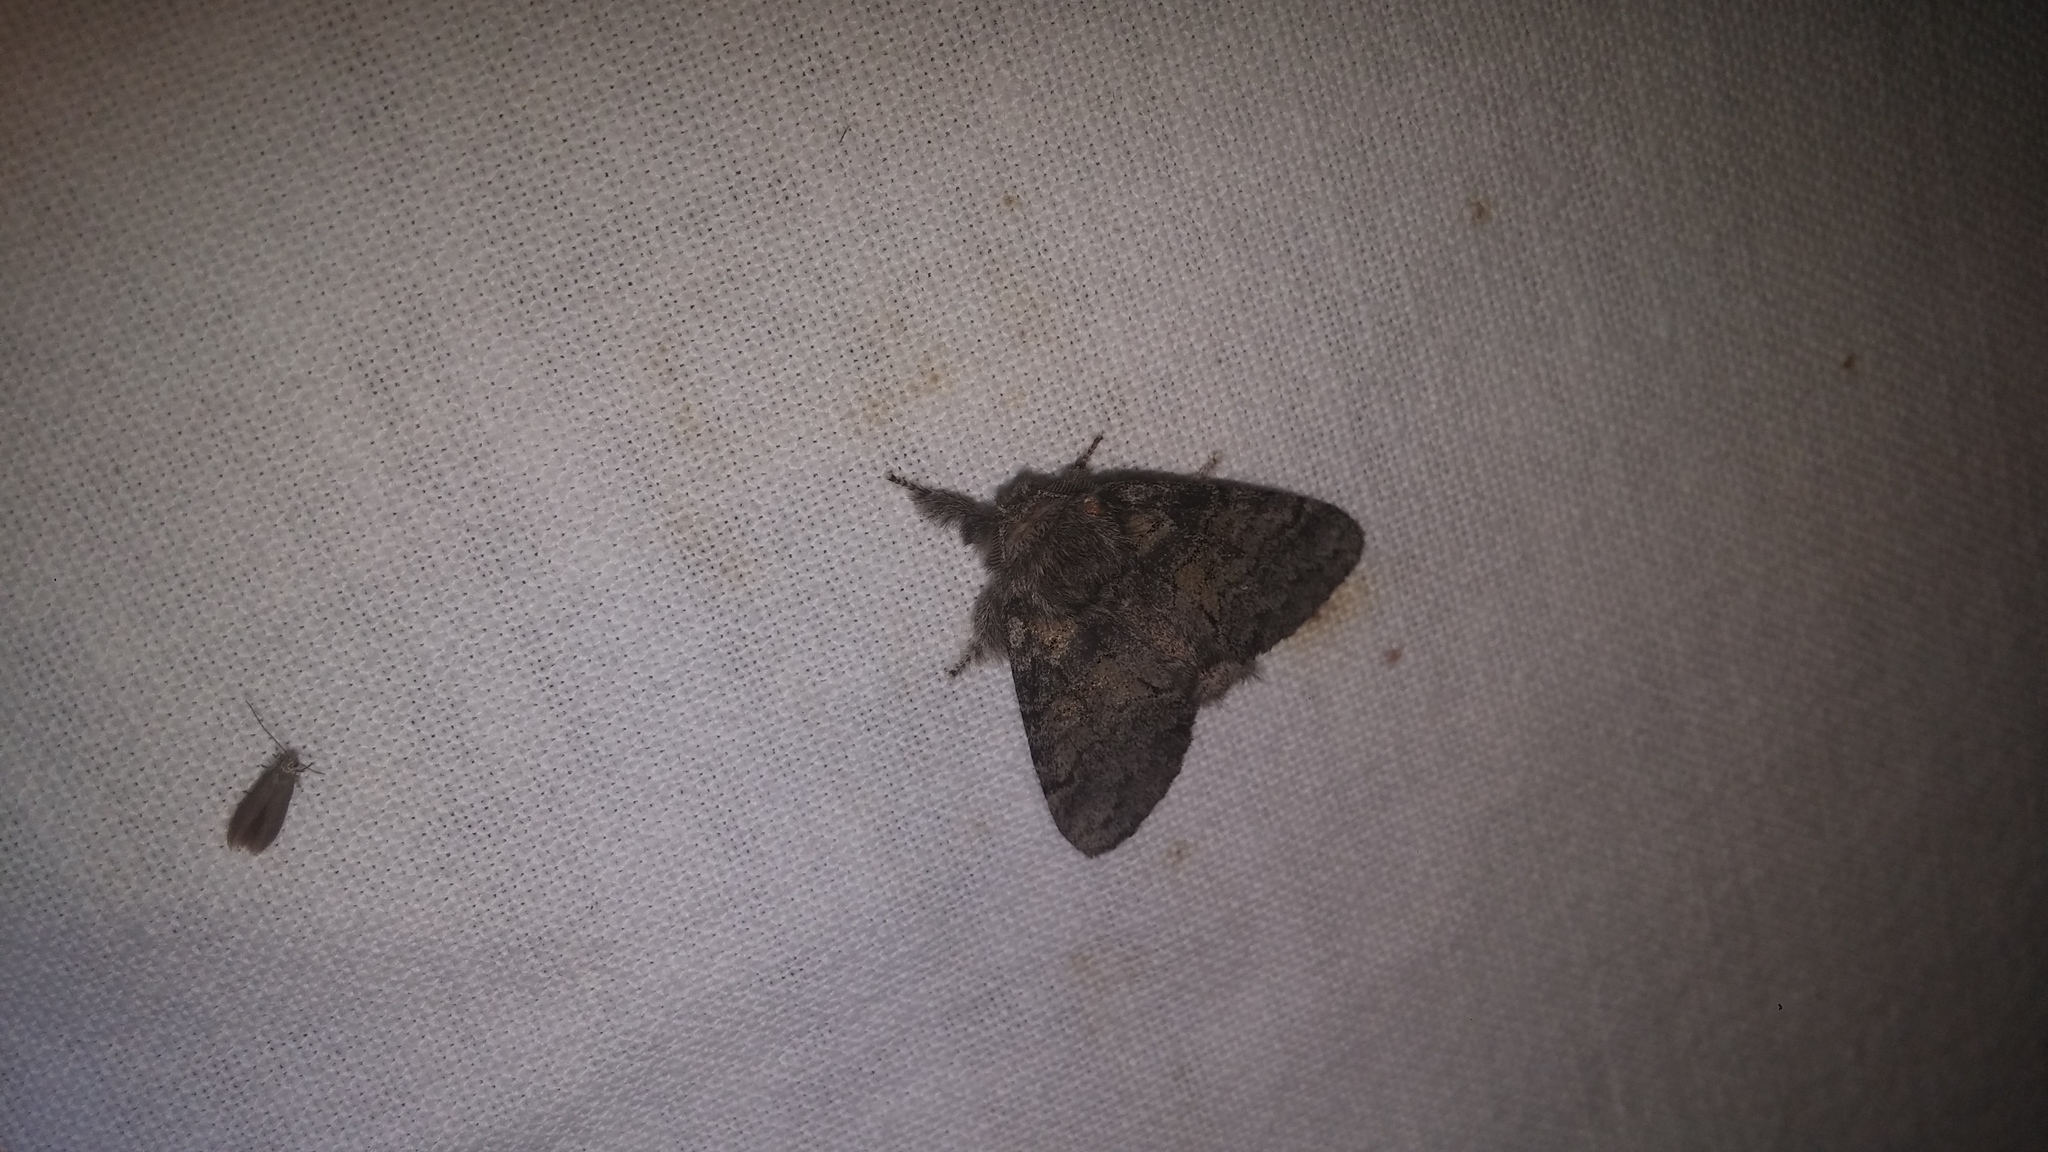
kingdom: Animalia
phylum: Arthropoda
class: Insecta
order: Lepidoptera
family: Notodontidae
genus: Gluphisia
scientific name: Gluphisia septentrionis
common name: Common gluphisia
